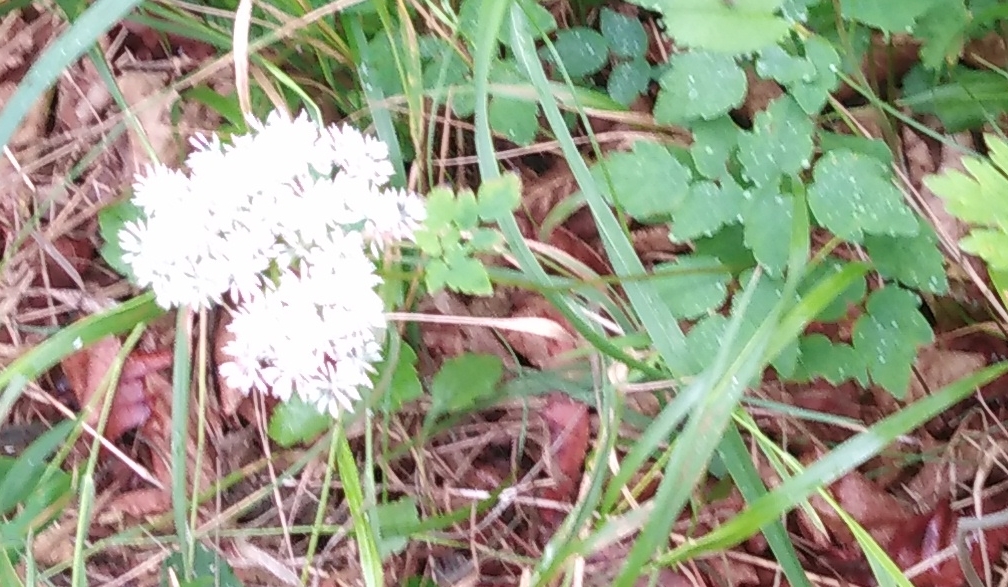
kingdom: Plantae
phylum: Tracheophyta
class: Magnoliopsida
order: Ranunculales
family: Ranunculaceae
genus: Thalictrum
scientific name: Thalictrum tuberiferum
